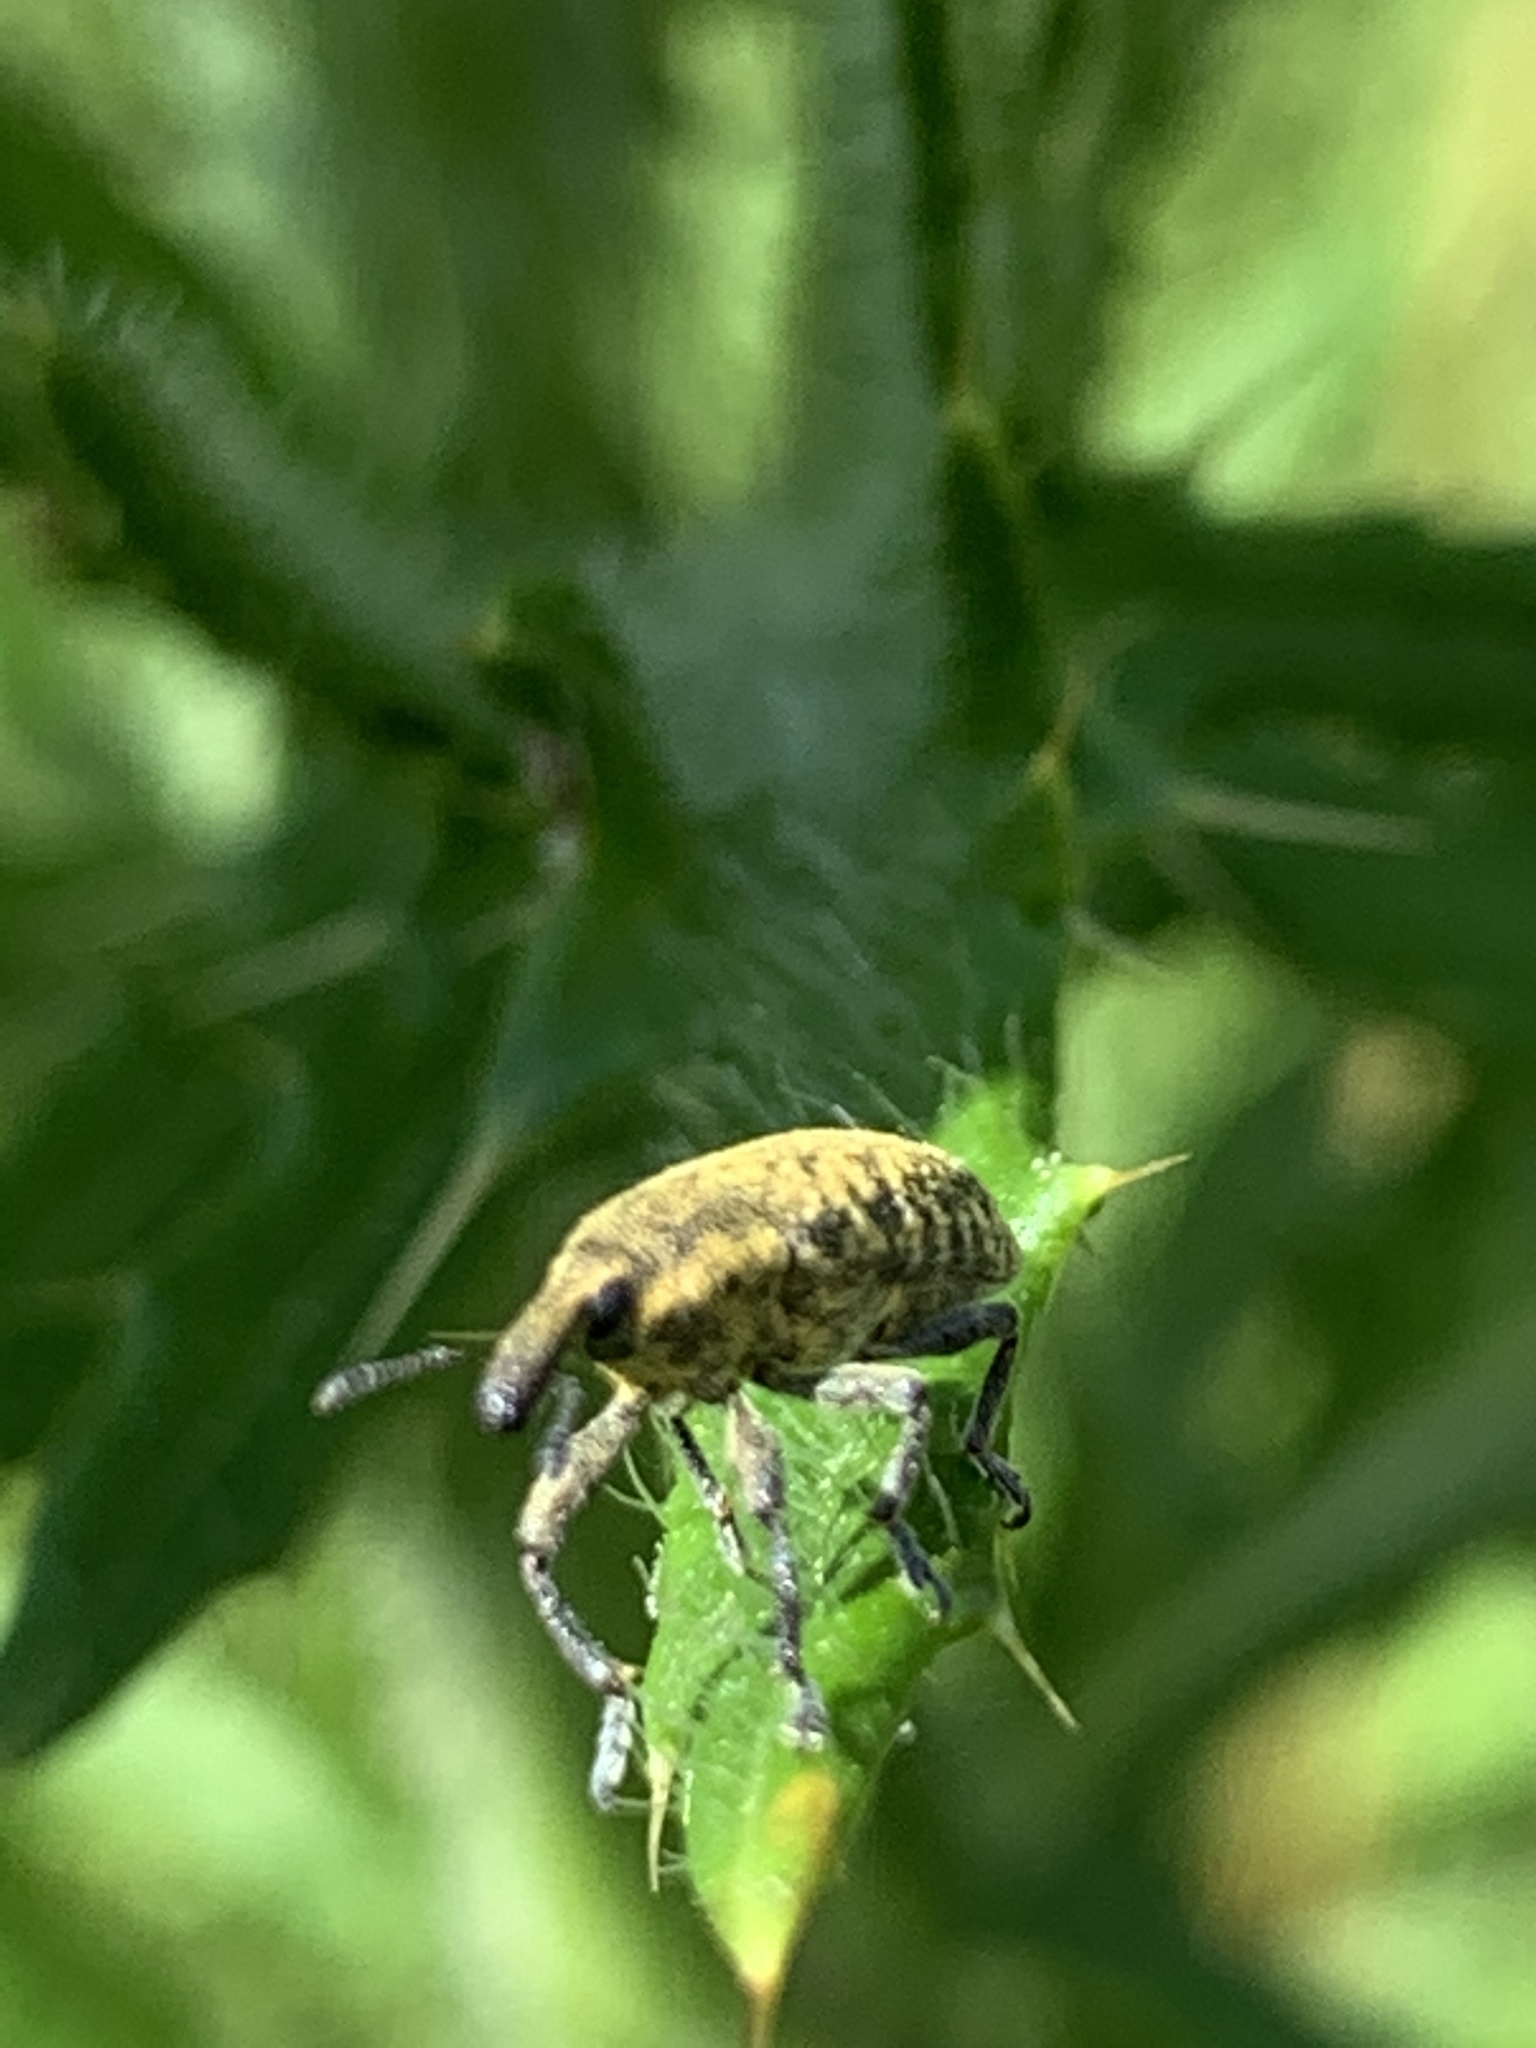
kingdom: Animalia
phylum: Arthropoda
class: Insecta
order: Coleoptera
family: Curculionidae
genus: Larinus
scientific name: Larinus carlinae
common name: Weevil
